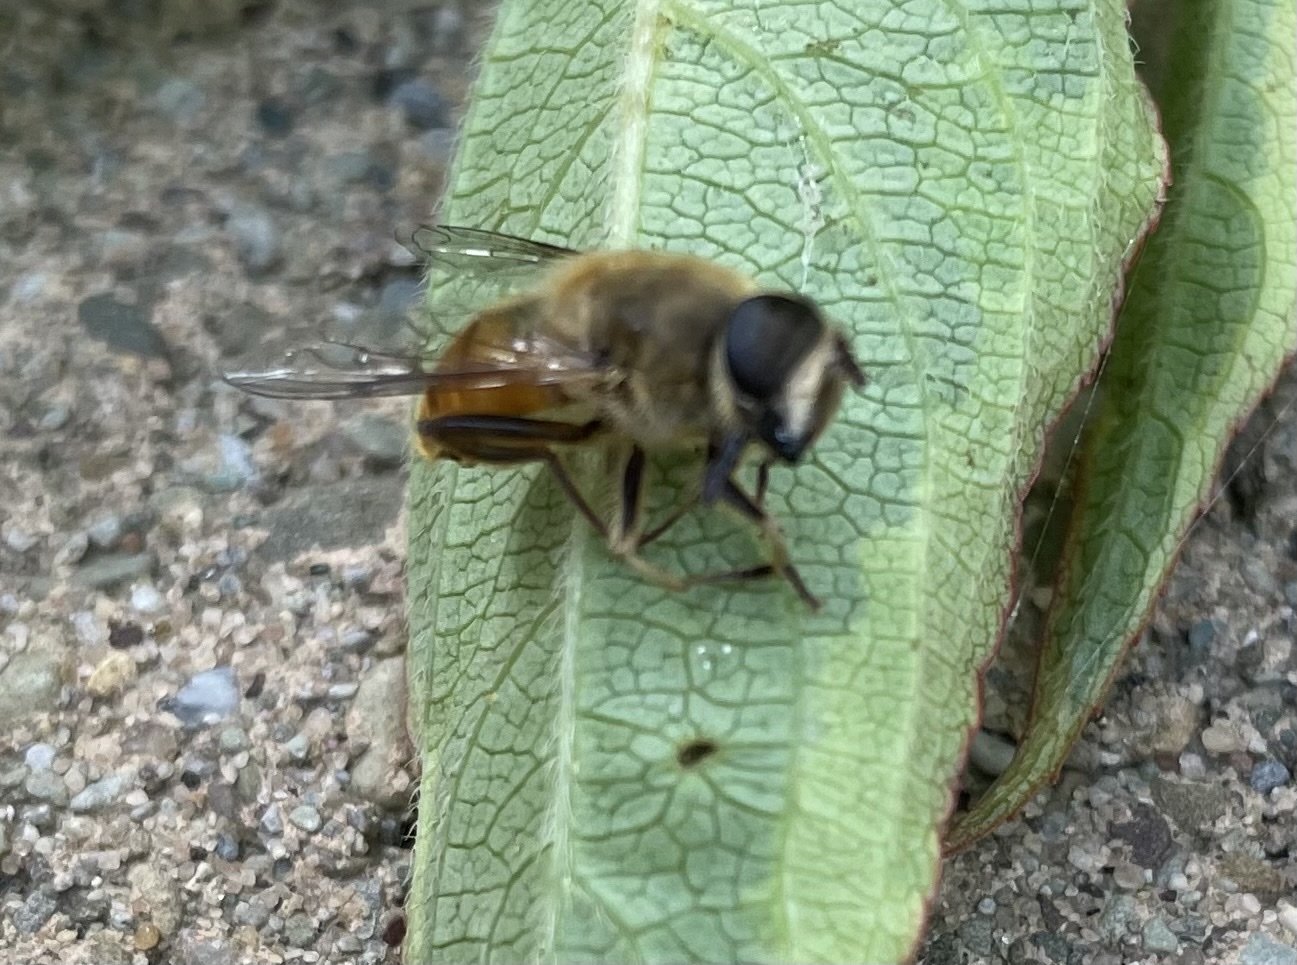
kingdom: Animalia
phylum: Arthropoda
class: Insecta
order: Diptera
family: Syrphidae
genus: Eristalis
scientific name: Eristalis tenax
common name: Drone fly
